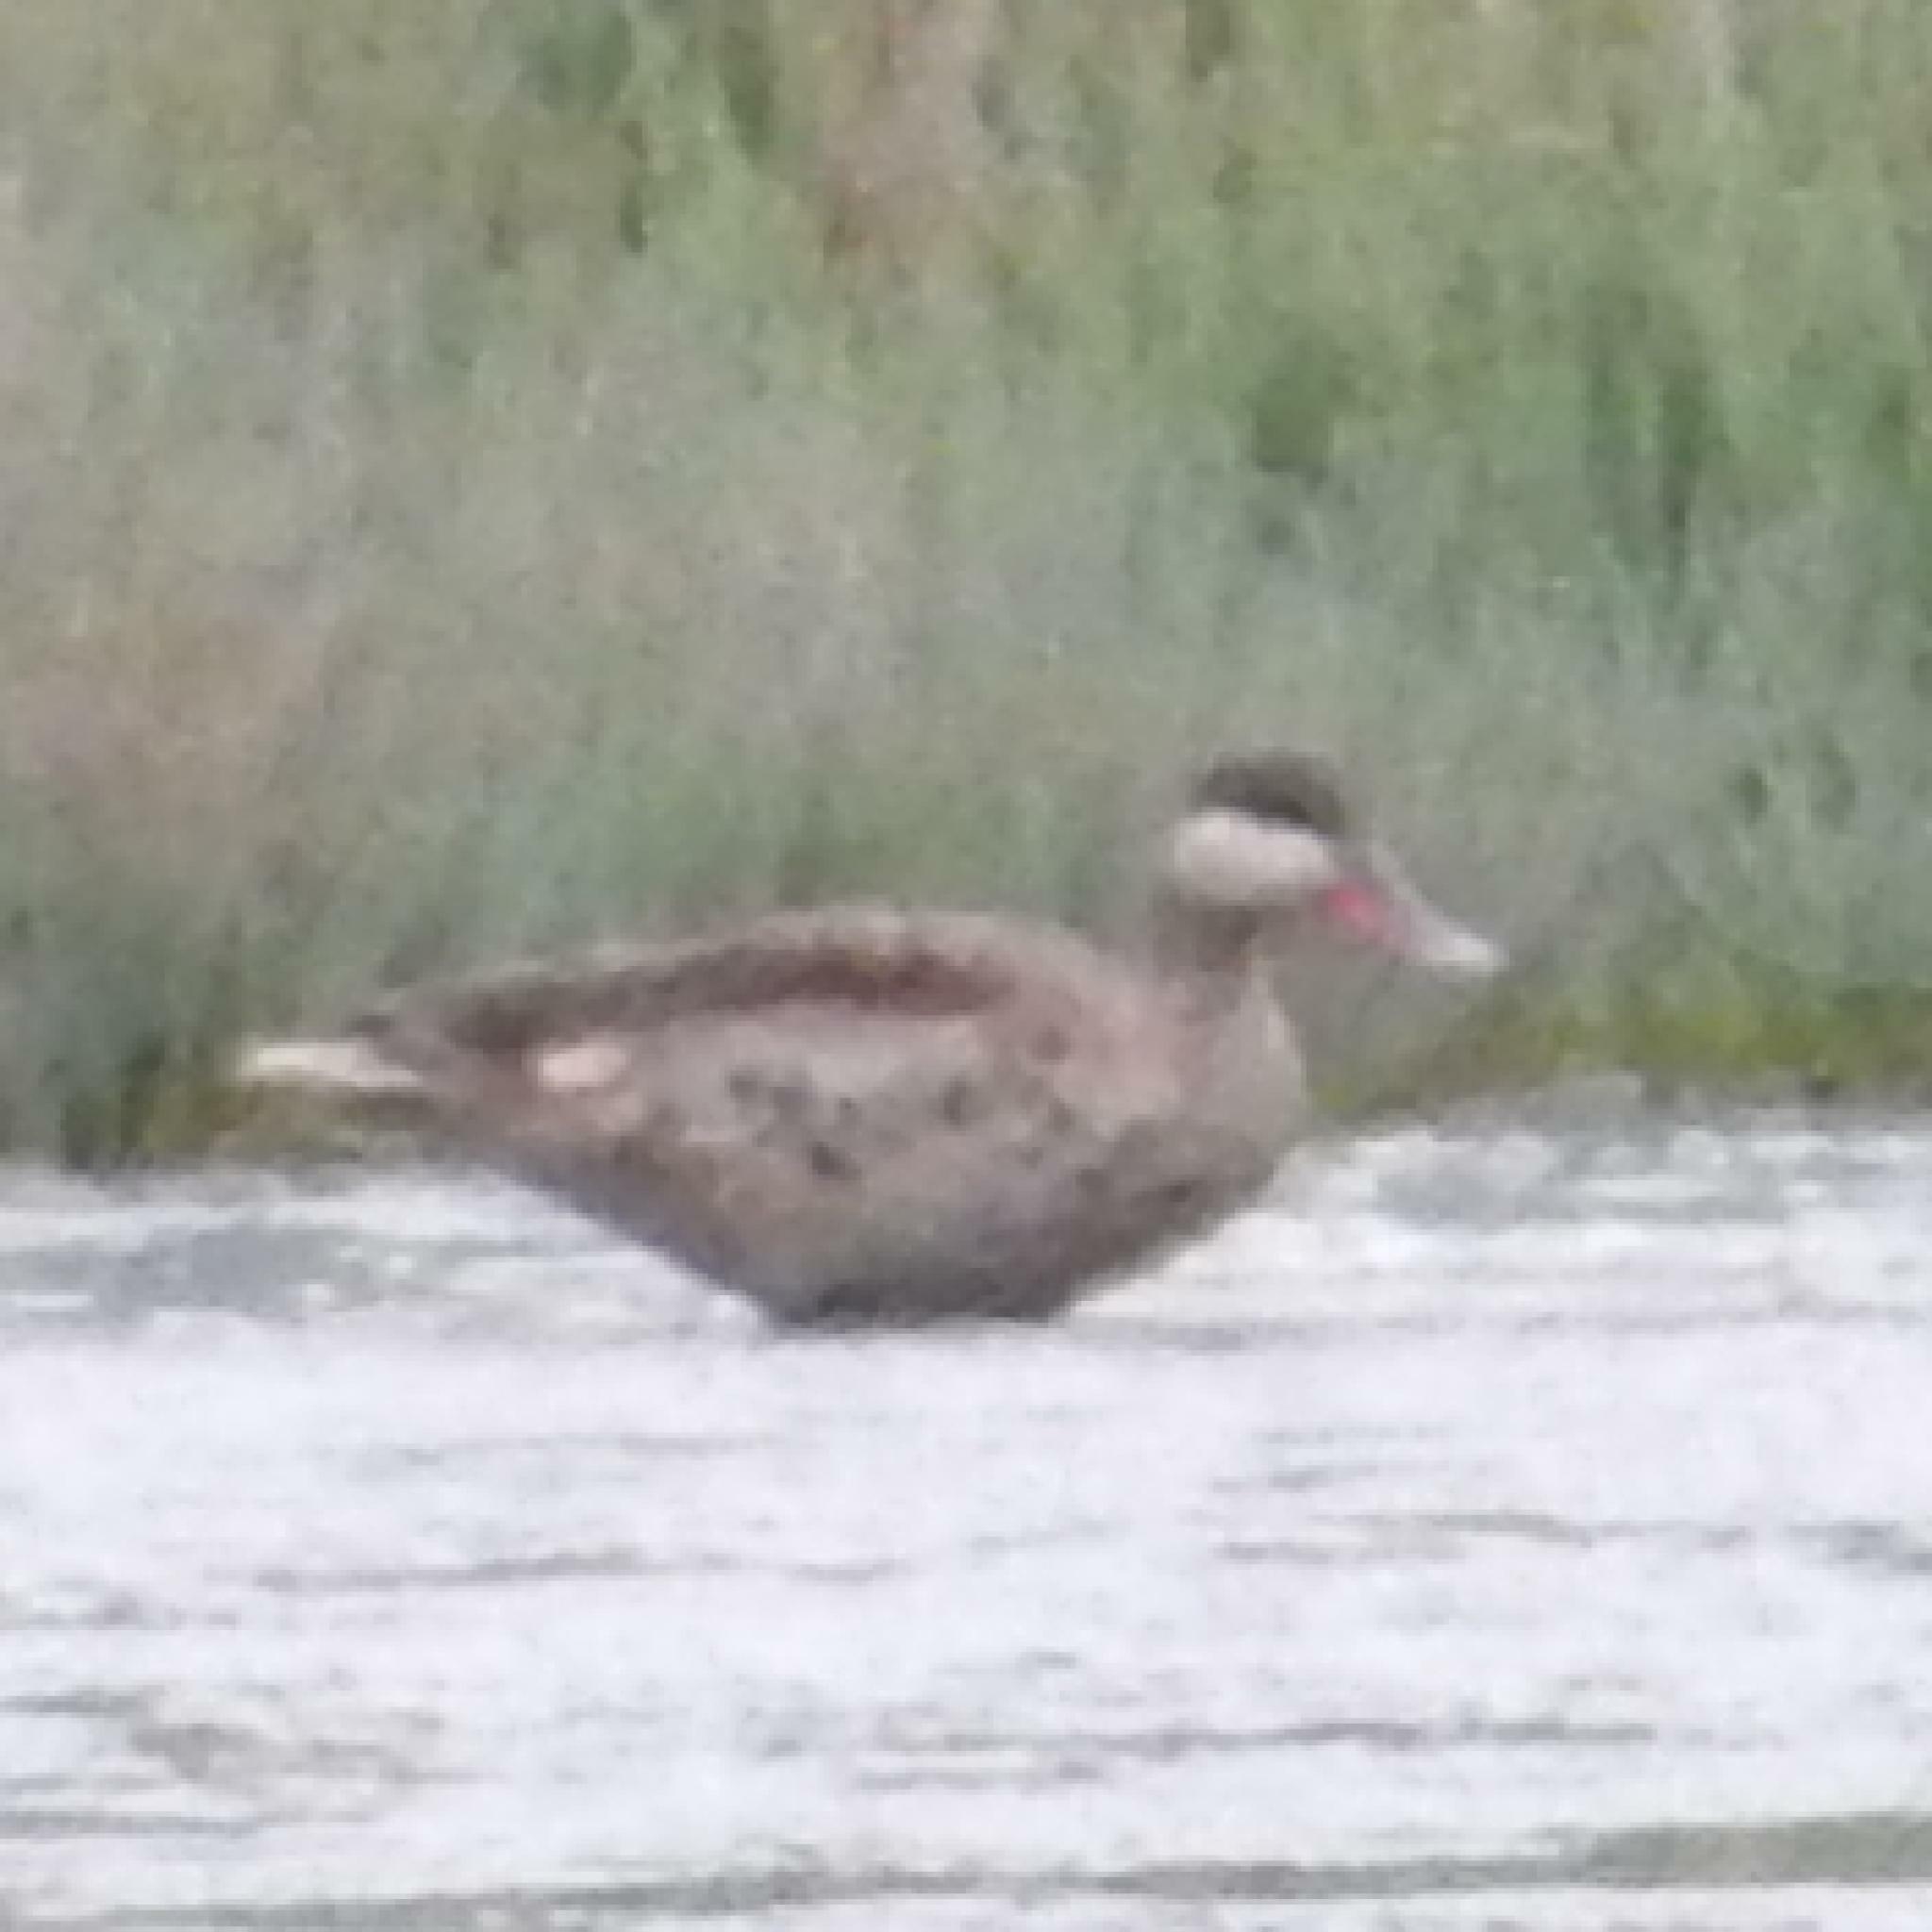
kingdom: Animalia
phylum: Chordata
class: Aves
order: Anseriformes
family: Anatidae
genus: Anas
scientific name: Anas erythrorhyncha
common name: Red-billed teal
